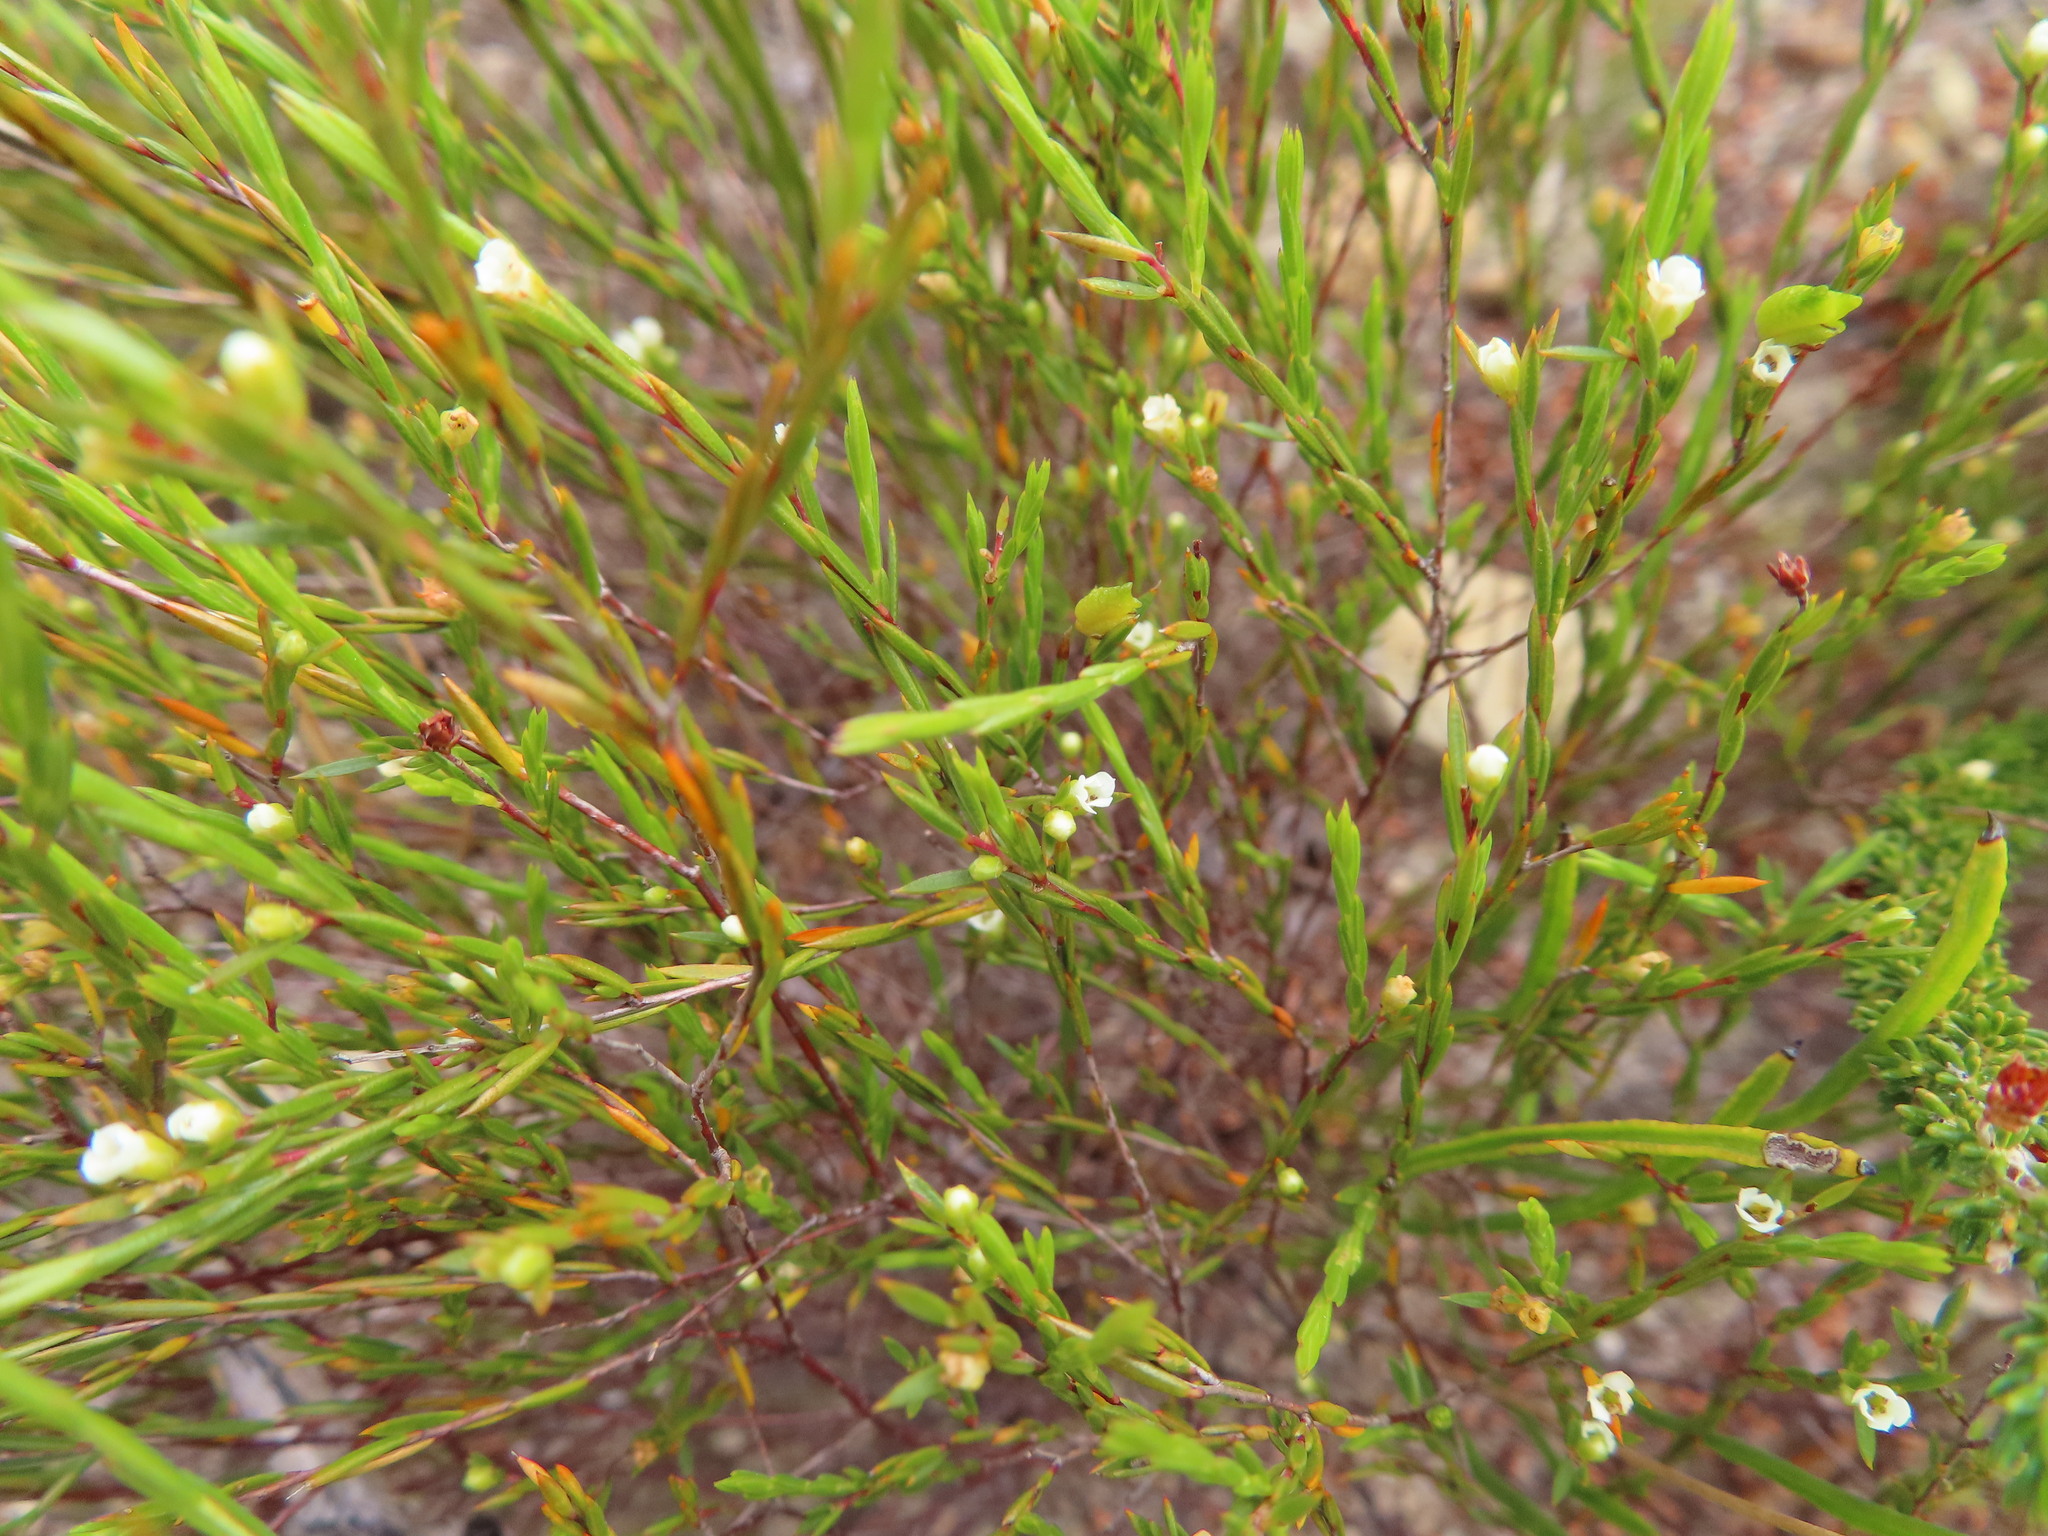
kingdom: Plantae
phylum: Tracheophyta
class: Magnoliopsida
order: Sapindales
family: Rutaceae
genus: Coleonema
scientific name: Coleonema juniperinum
